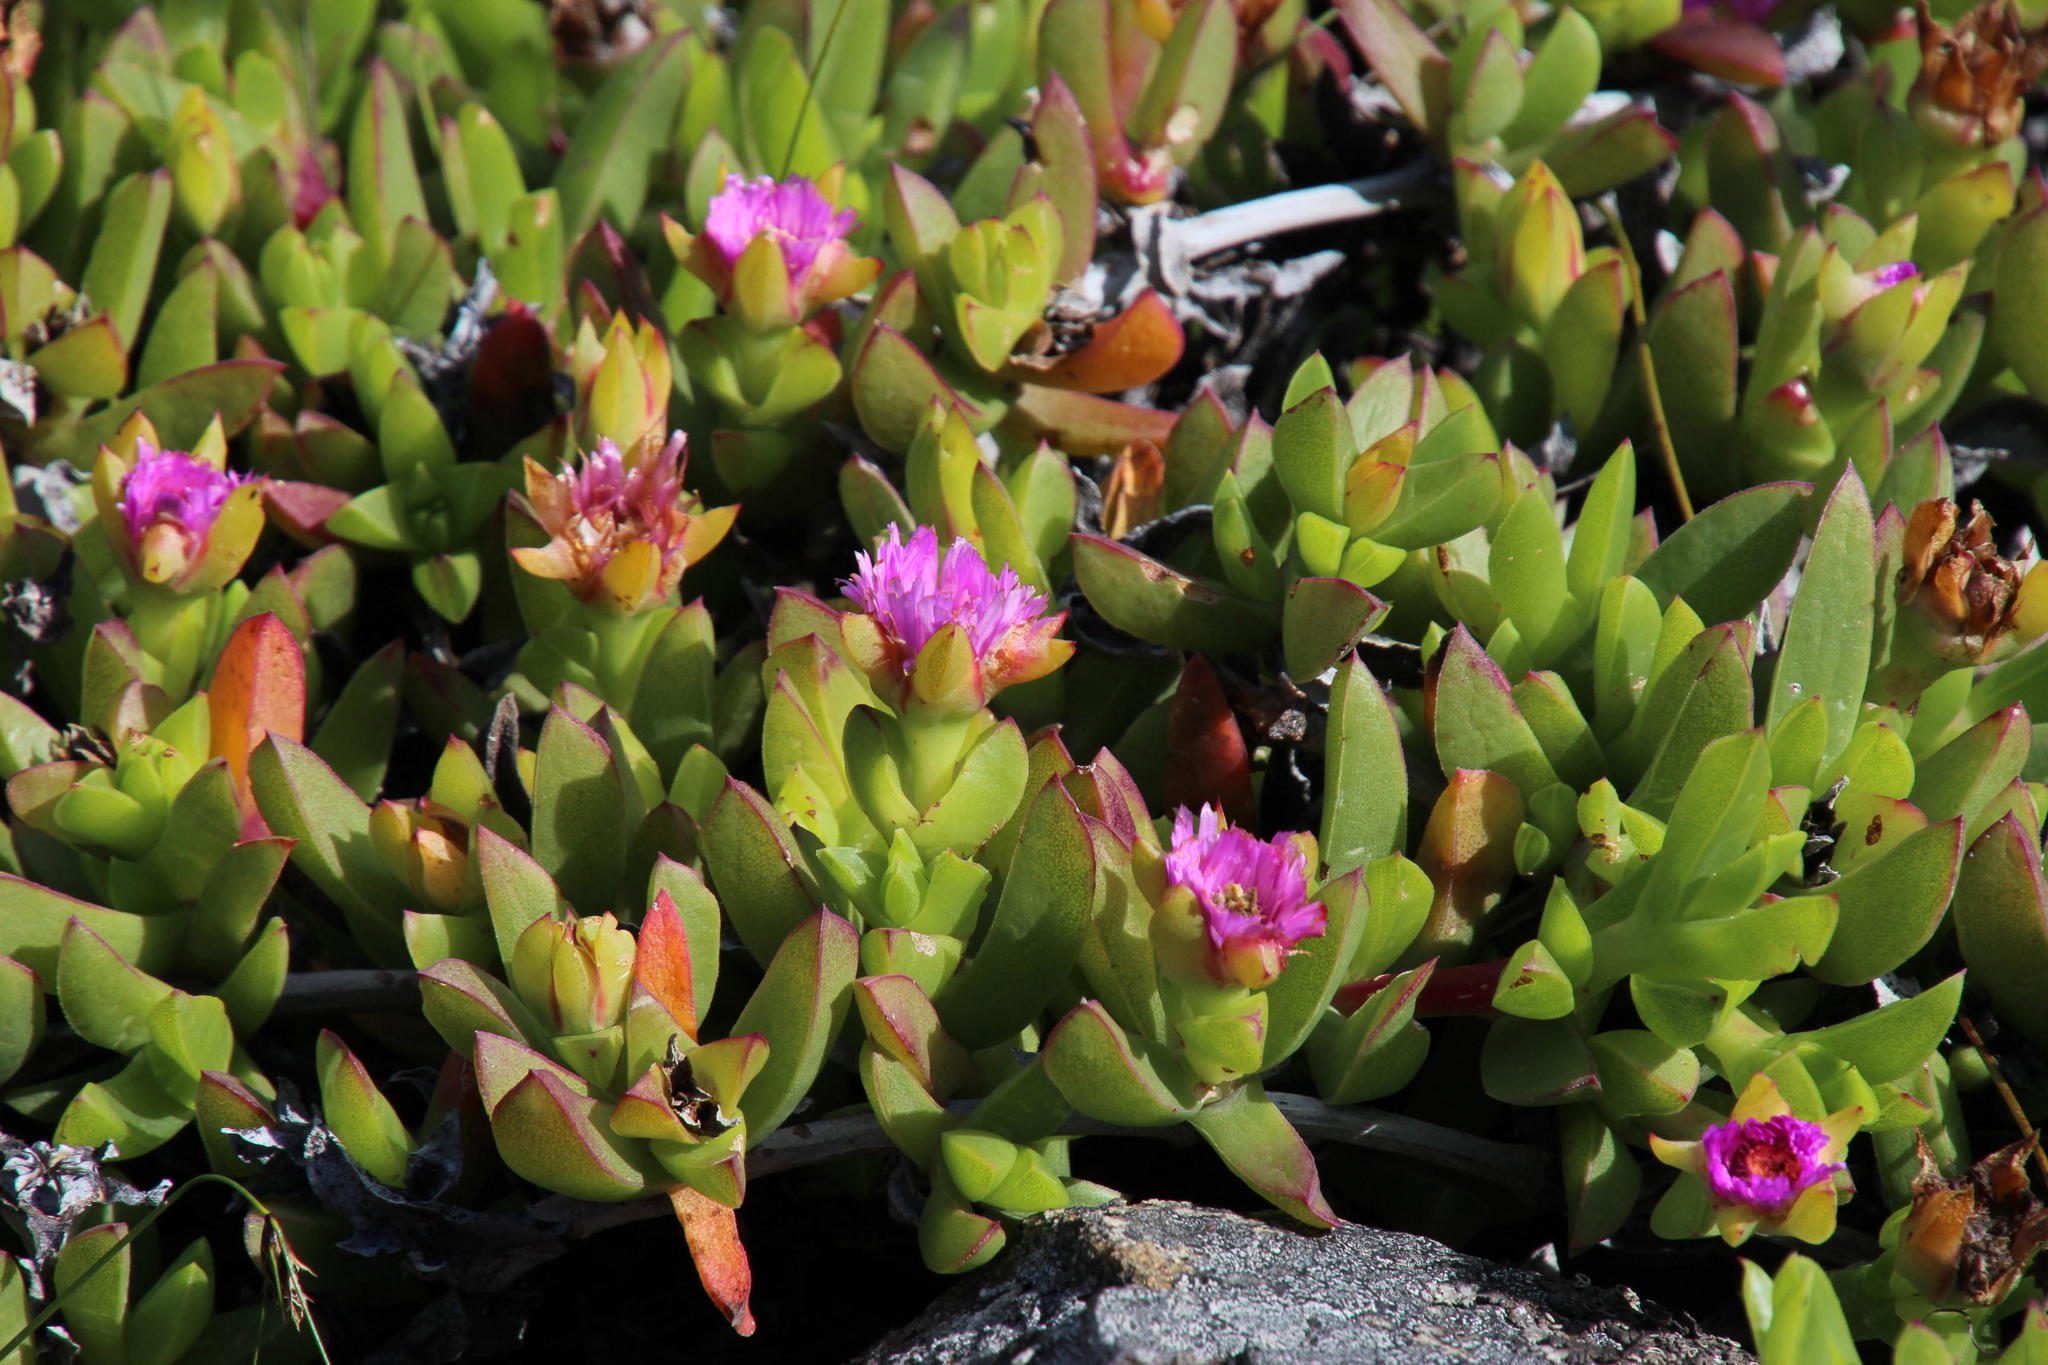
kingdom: Plantae
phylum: Tracheophyta
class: Magnoliopsida
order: Caryophyllales
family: Aizoaceae
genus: Ruschia
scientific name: Ruschia rubricaulis
